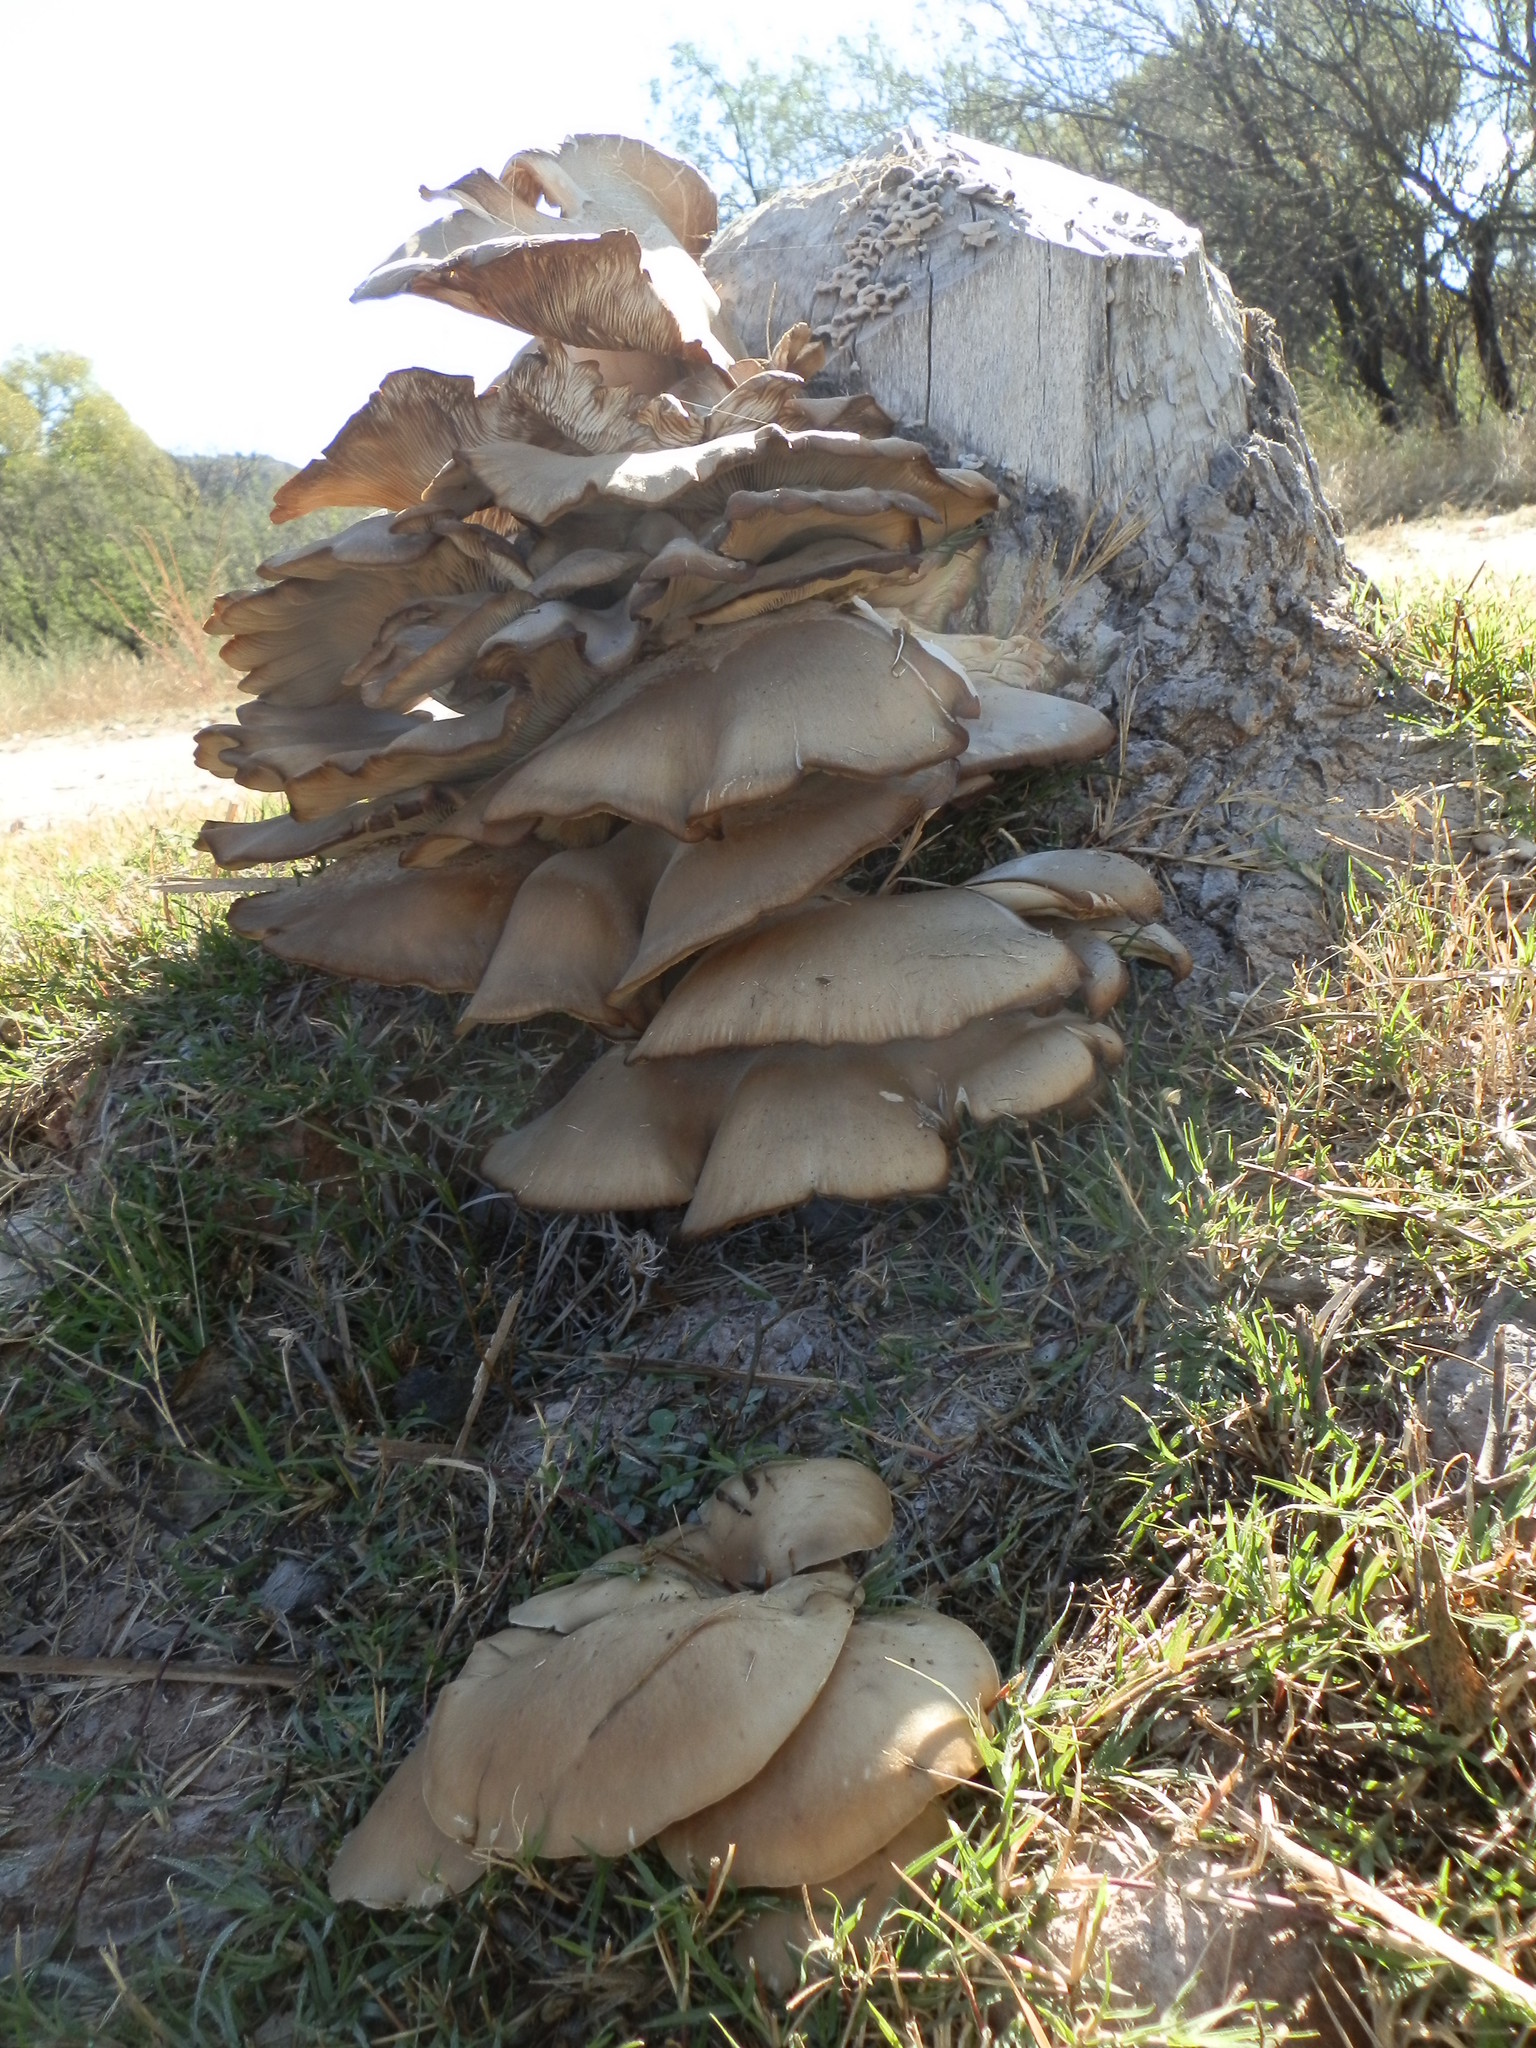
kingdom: Fungi
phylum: Basidiomycota
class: Agaricomycetes
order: Agaricales
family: Pleurotaceae
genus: Pleurotus
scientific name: Pleurotus ostreatus
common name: Oyster mushroom
